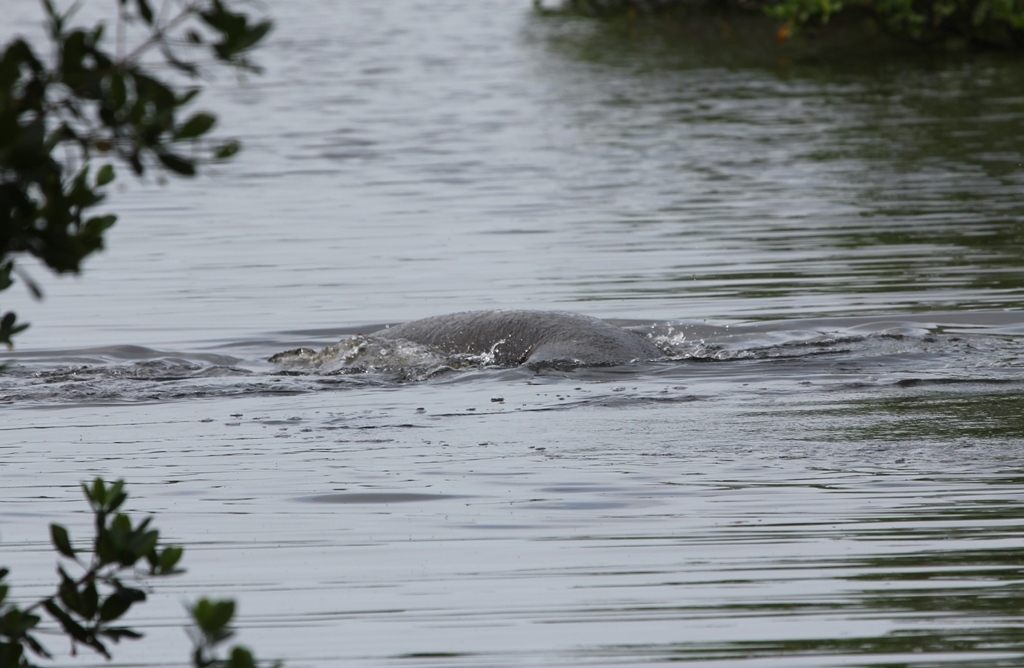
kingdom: Animalia
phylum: Chordata
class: Mammalia
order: Sirenia
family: Trichechidae
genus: Trichechus
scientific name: Trichechus manatus
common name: West indian manatee
